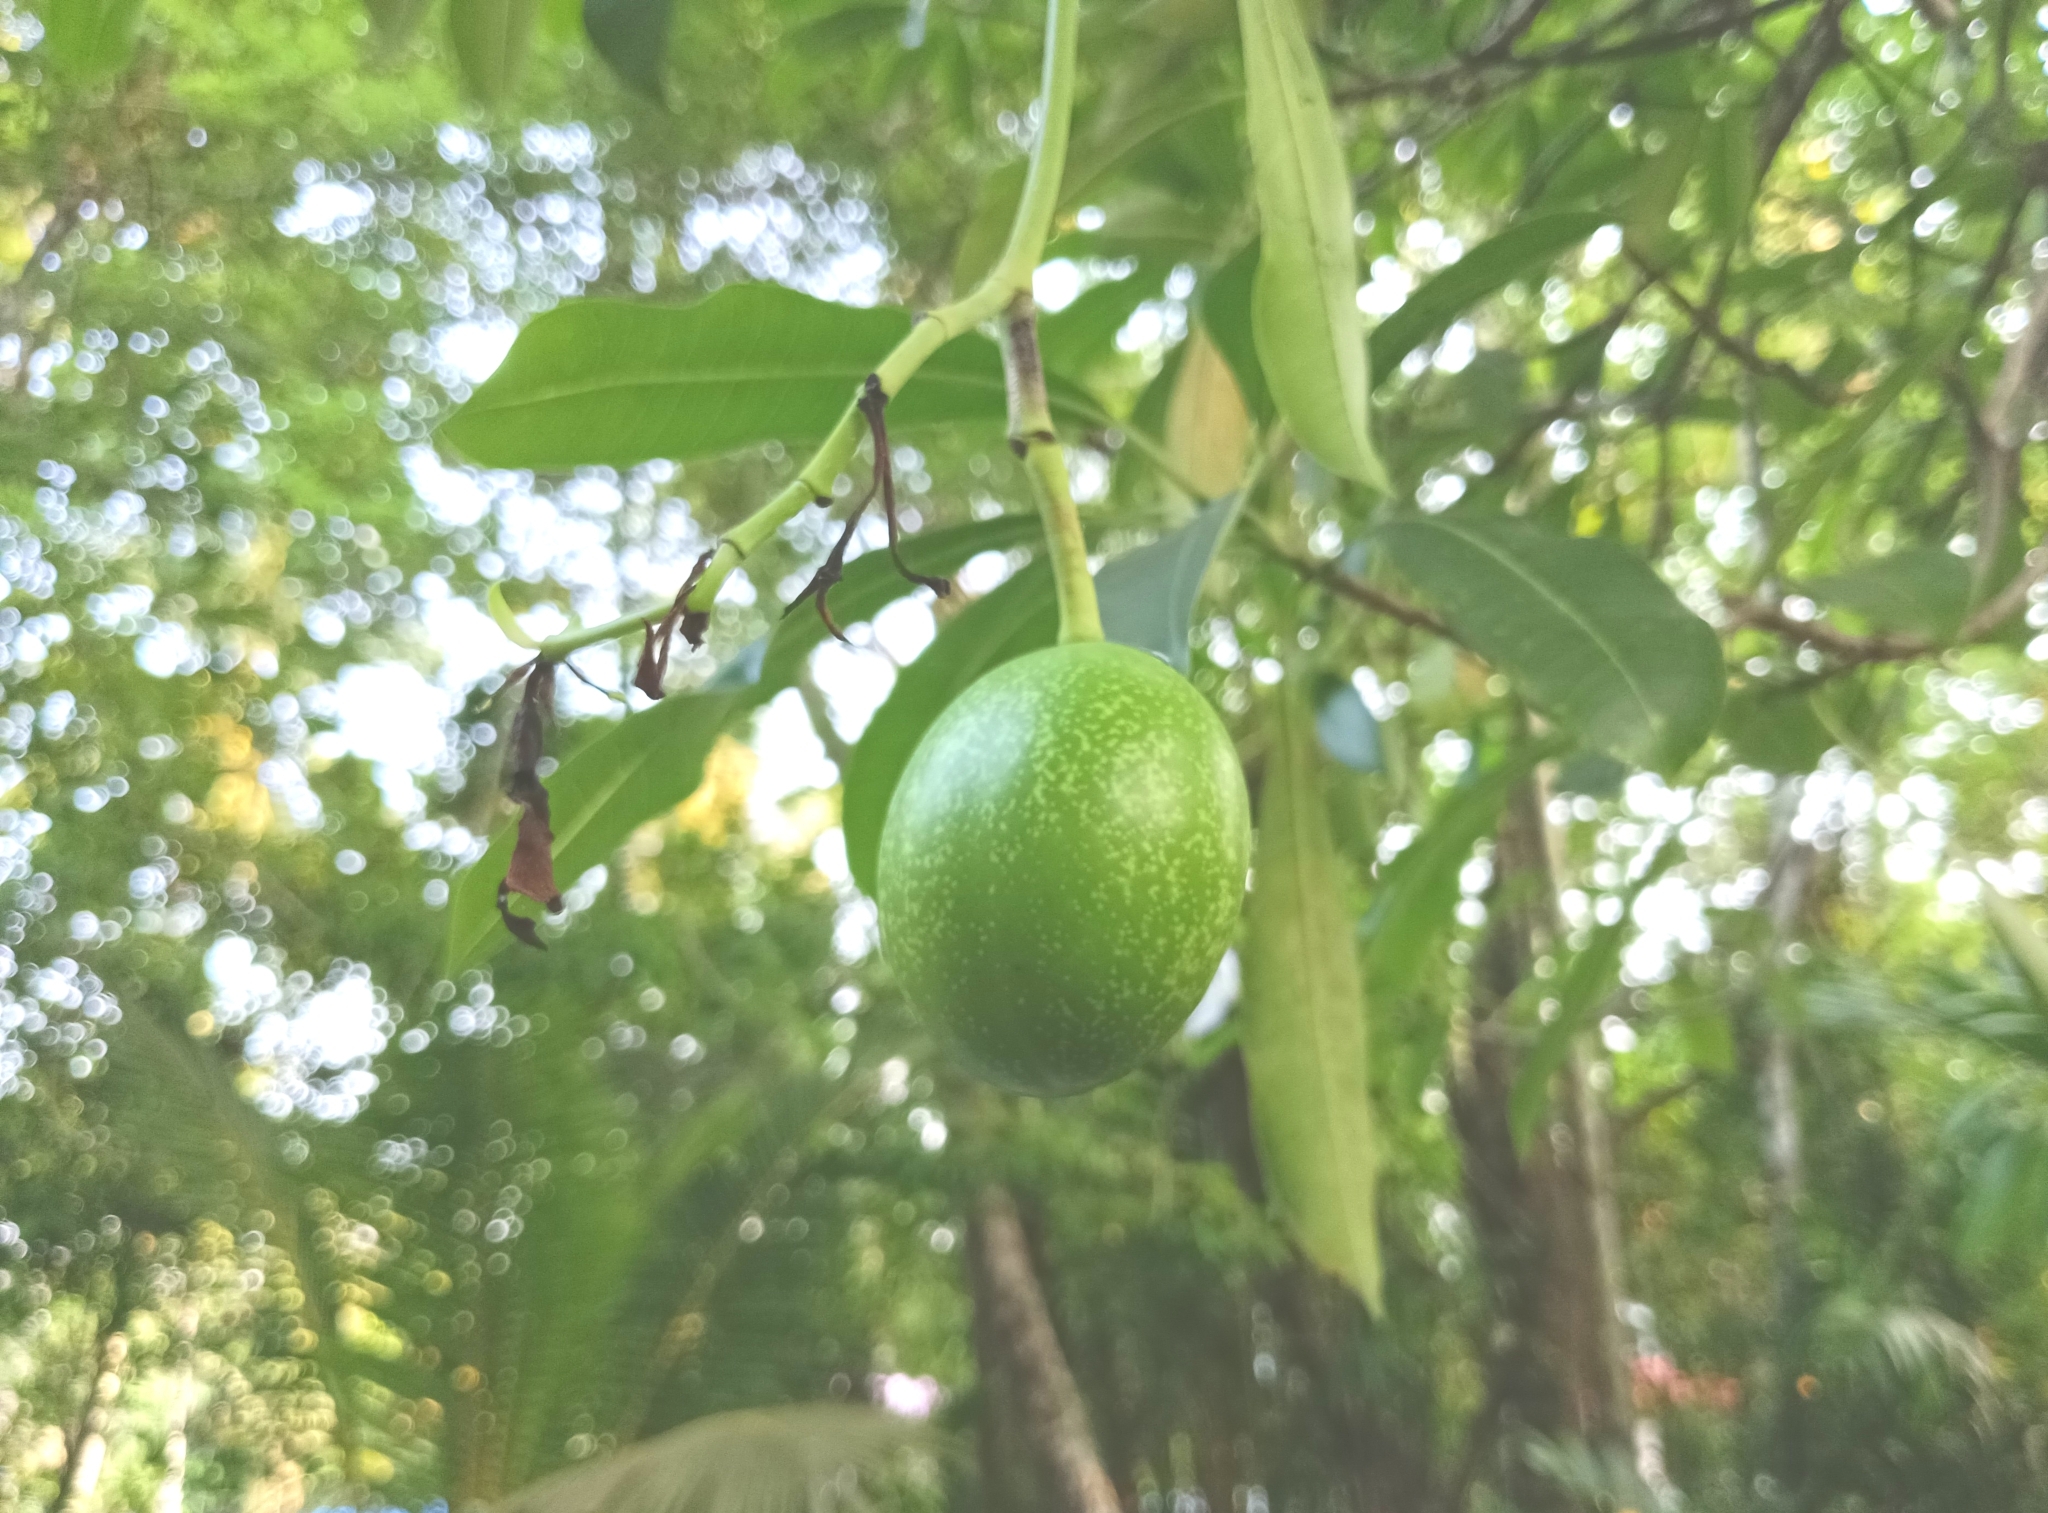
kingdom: Plantae
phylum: Tracheophyta
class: Magnoliopsida
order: Gentianales
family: Apocynaceae
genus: Cerbera
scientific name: Cerbera odollam
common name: Pong-pong
